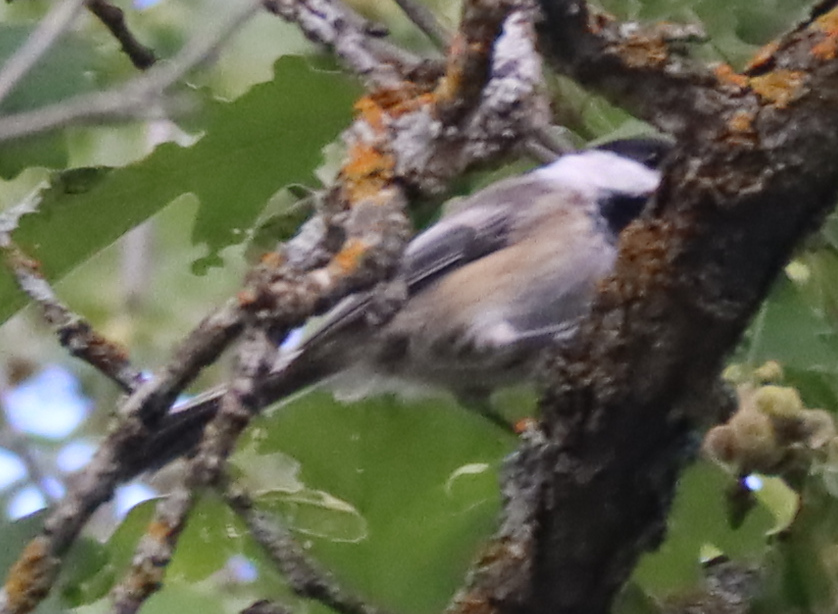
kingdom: Animalia
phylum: Chordata
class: Aves
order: Passeriformes
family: Paridae
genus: Poecile
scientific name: Poecile atricapillus
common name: Black-capped chickadee
